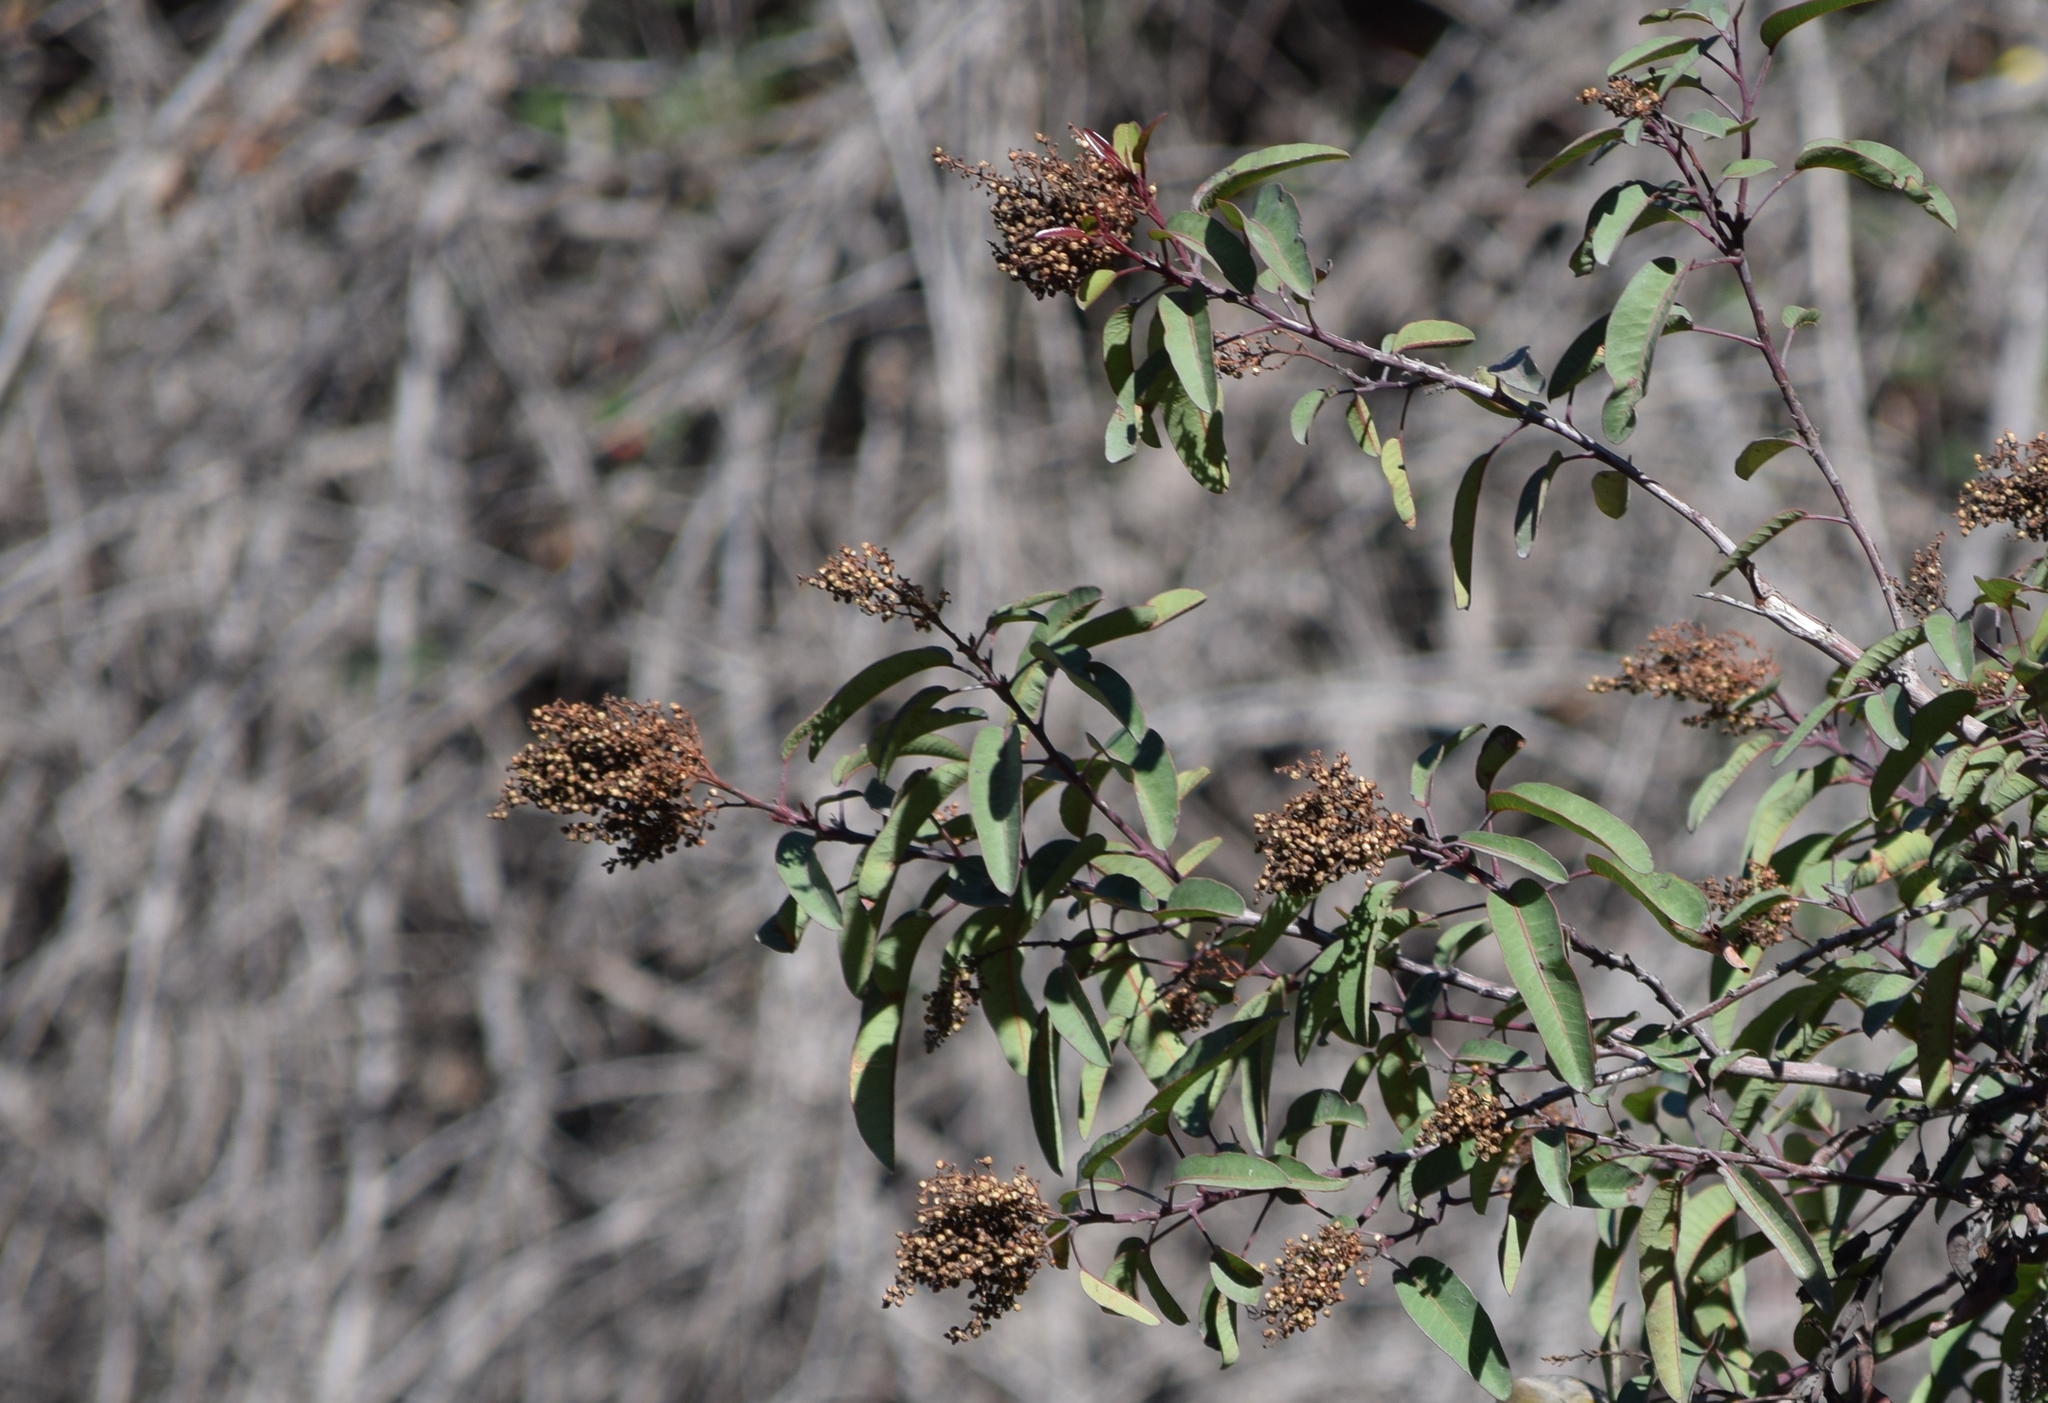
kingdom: Plantae
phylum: Tracheophyta
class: Magnoliopsida
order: Sapindales
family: Anacardiaceae
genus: Malosma
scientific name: Malosma laurina
